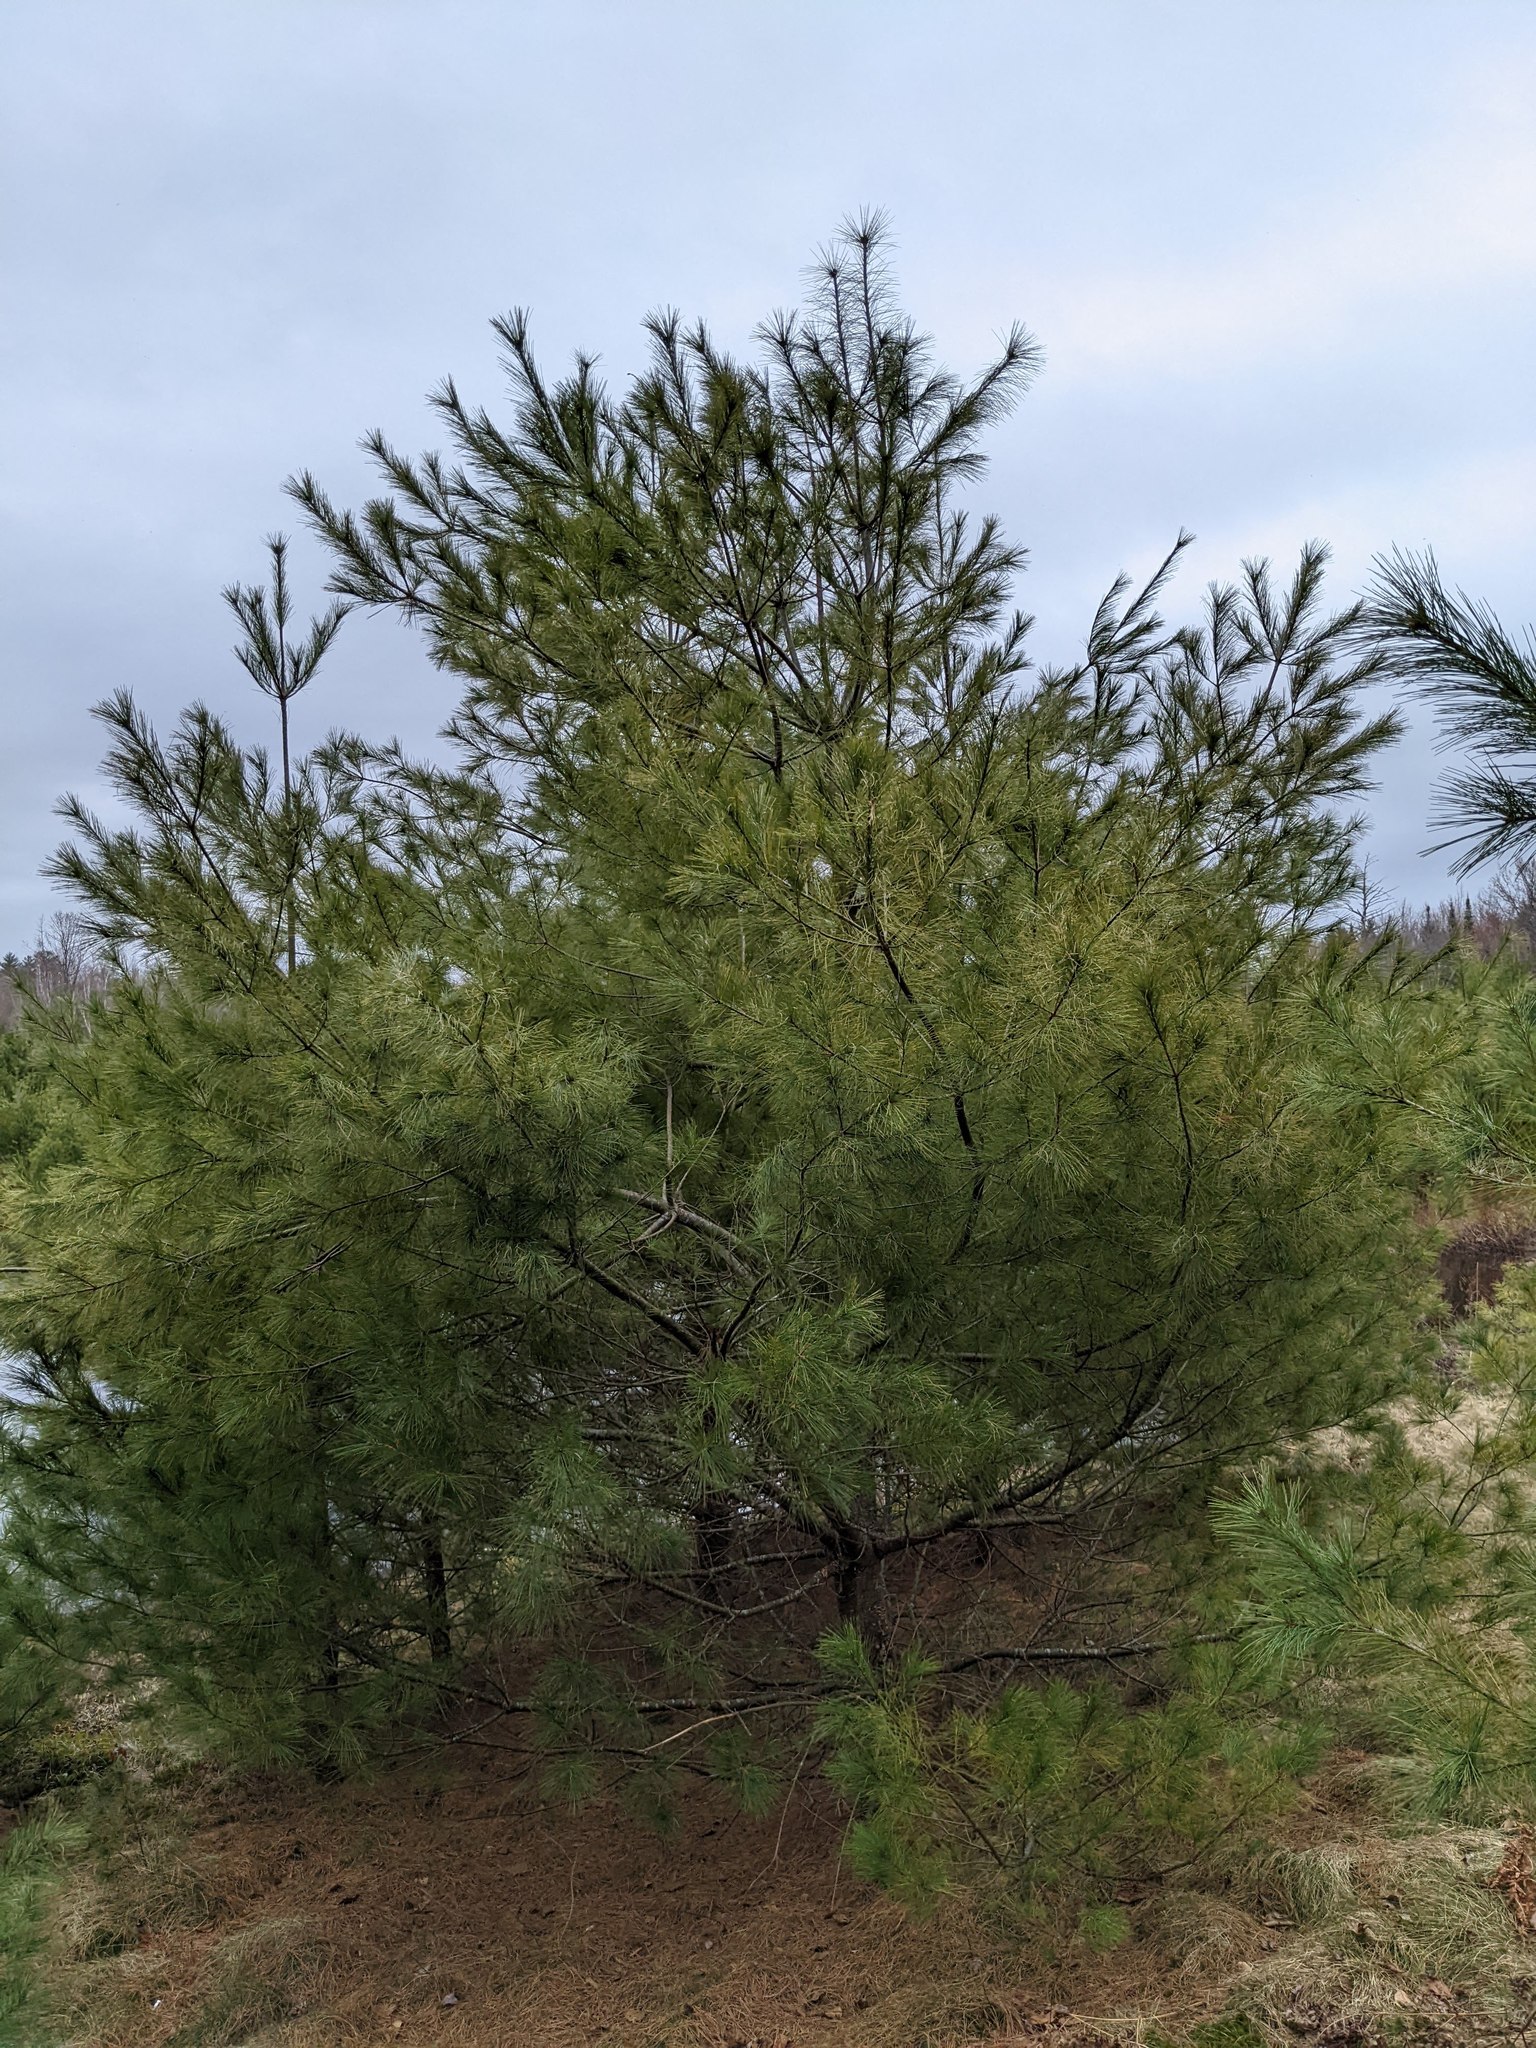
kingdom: Plantae
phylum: Tracheophyta
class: Pinopsida
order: Pinales
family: Pinaceae
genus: Pinus
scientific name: Pinus strobus
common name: Weymouth pine
